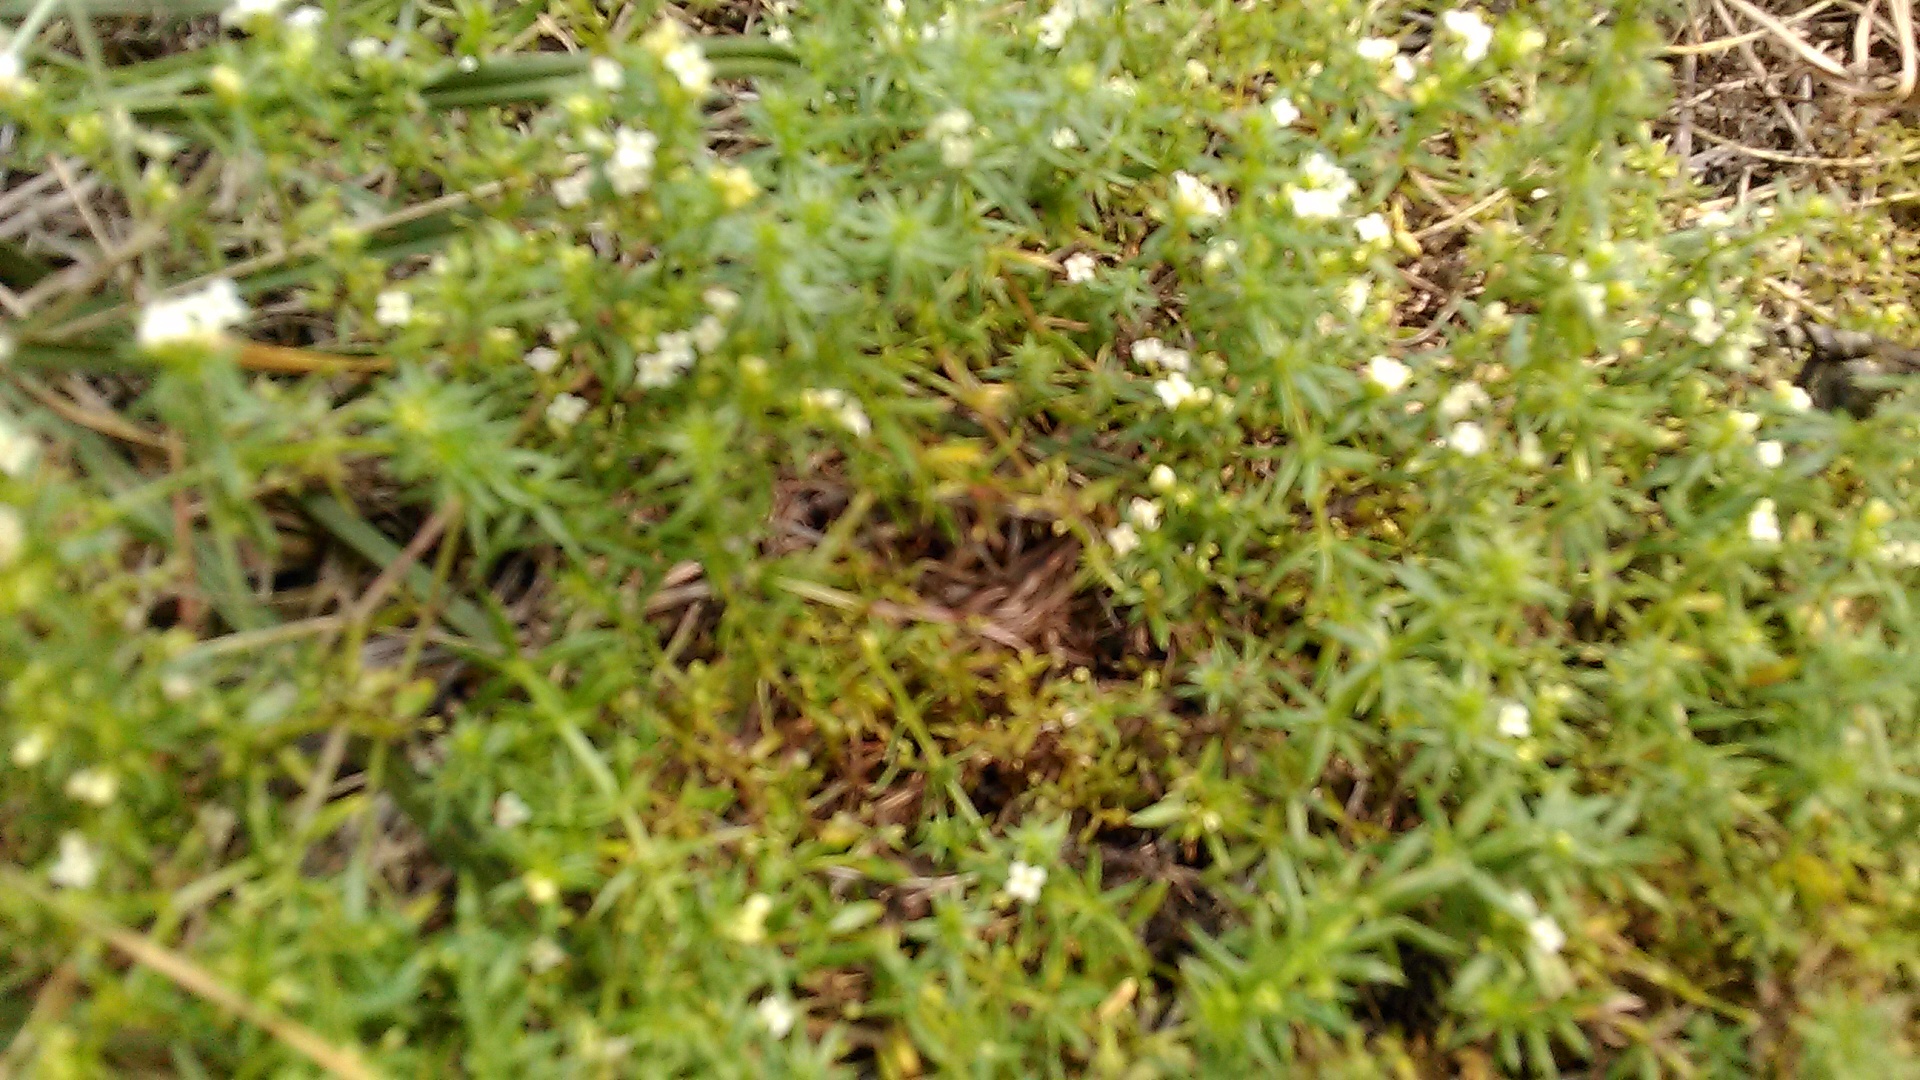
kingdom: Plantae
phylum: Tracheophyta
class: Magnoliopsida
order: Gentianales
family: Rubiaceae
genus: Galium
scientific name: Galium humifusum
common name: Spreading bedstraw
